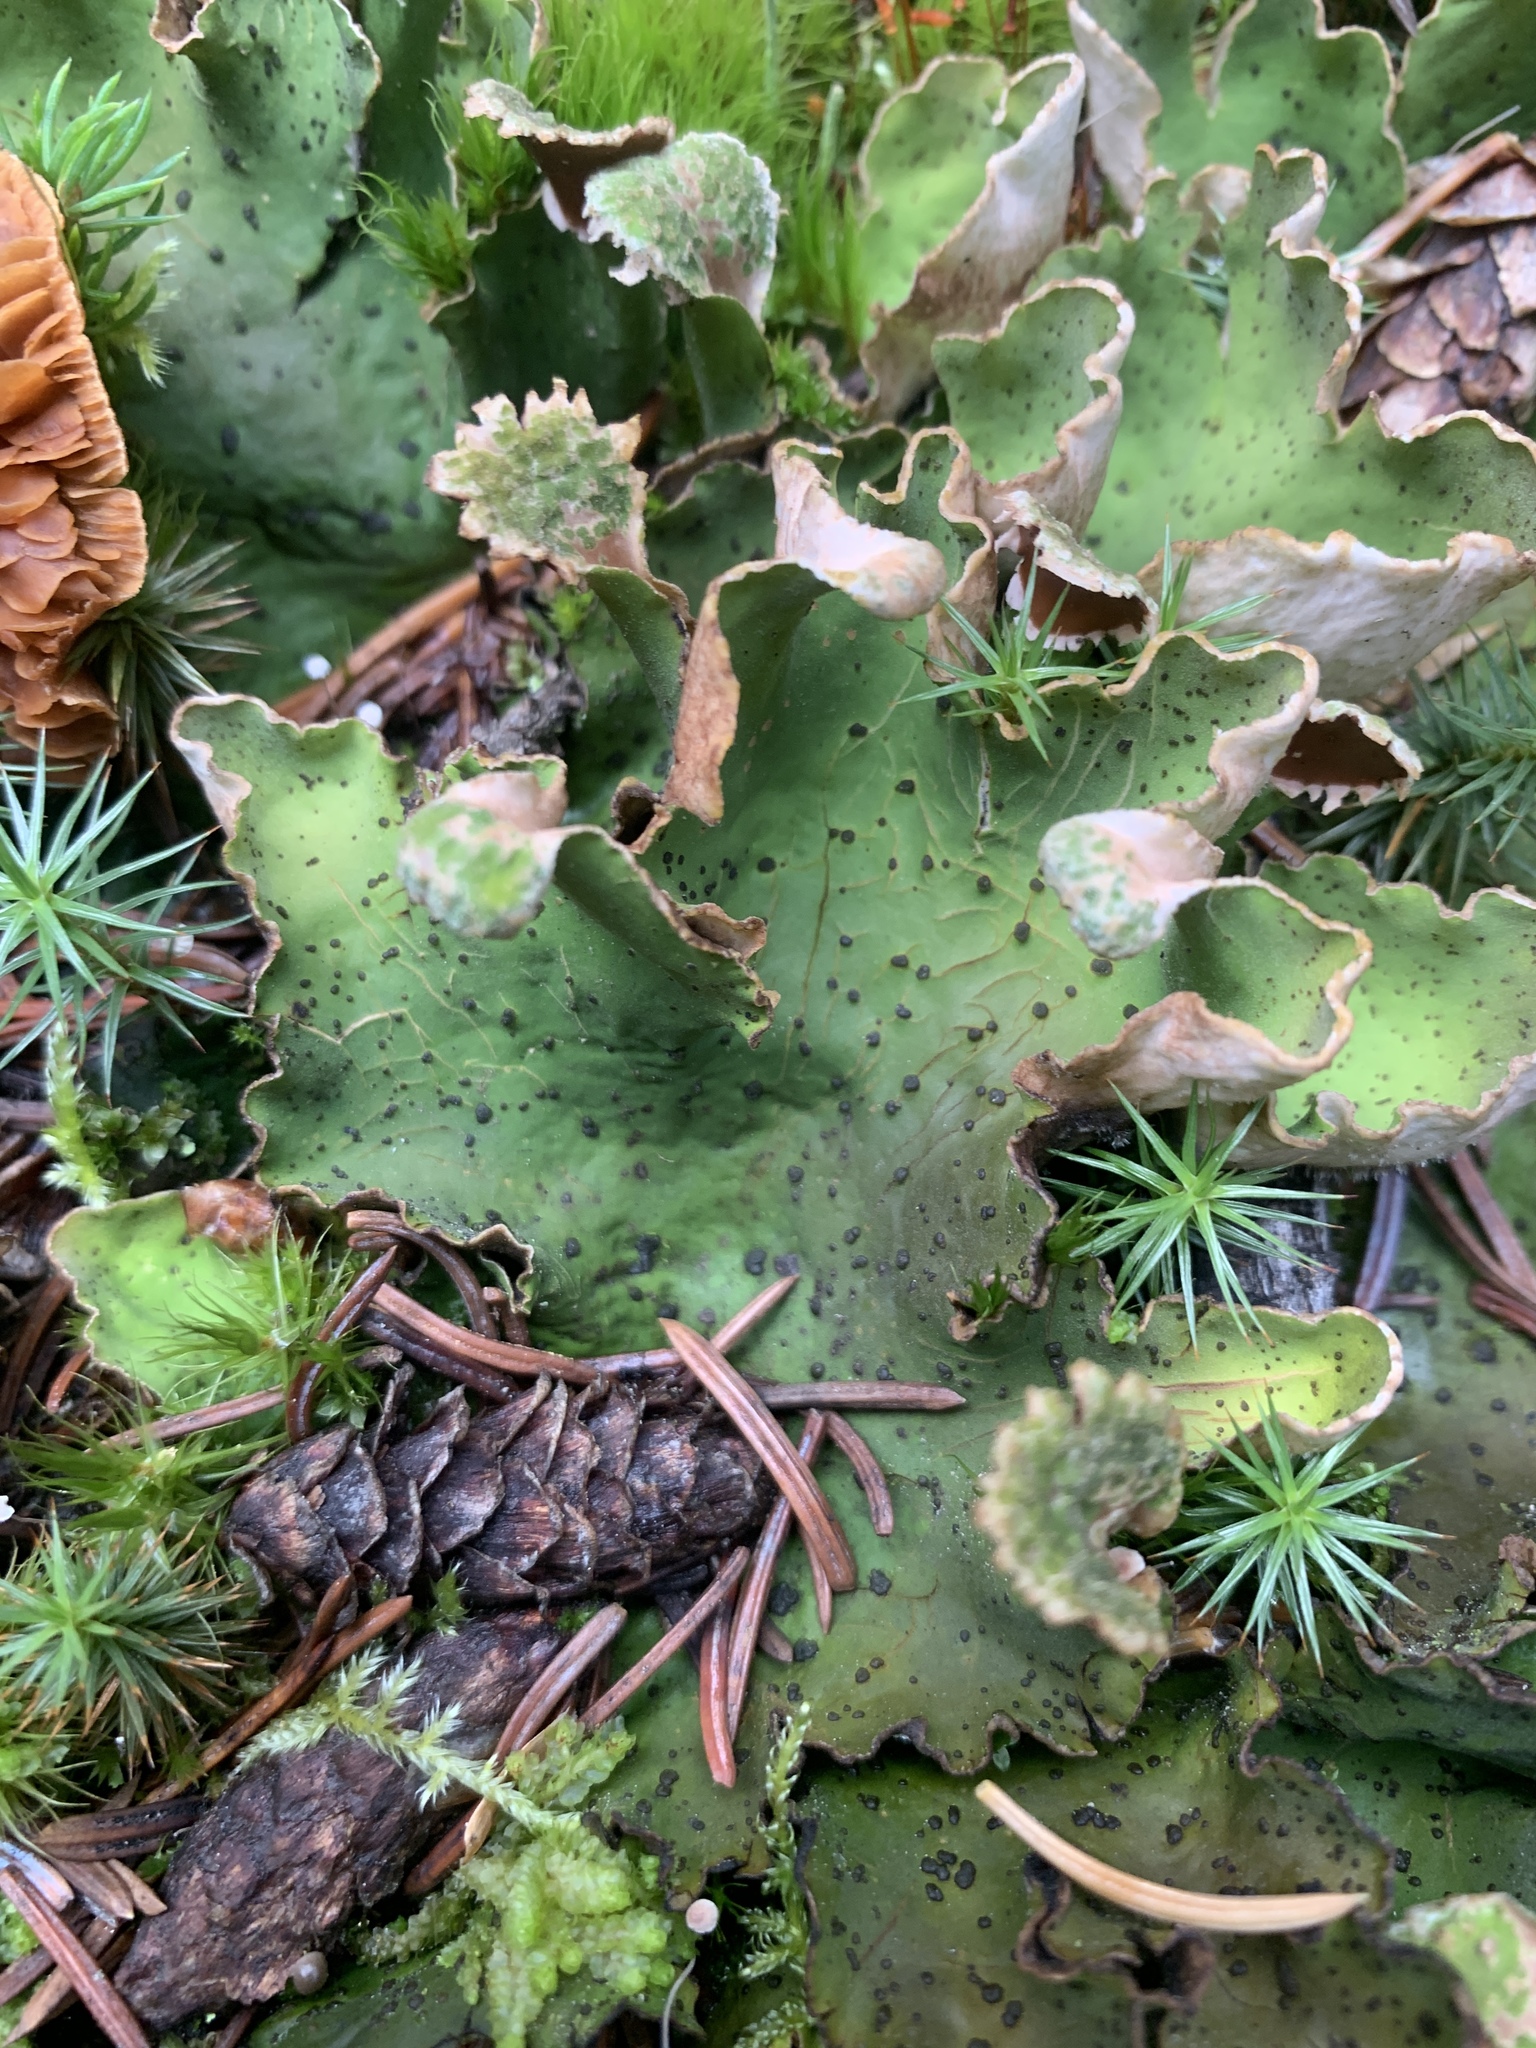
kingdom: Fungi
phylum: Ascomycota
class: Lecanoromycetes
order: Peltigerales
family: Peltigeraceae
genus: Peltigera
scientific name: Peltigera aphthosa
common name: Common freckle pelt lichen
